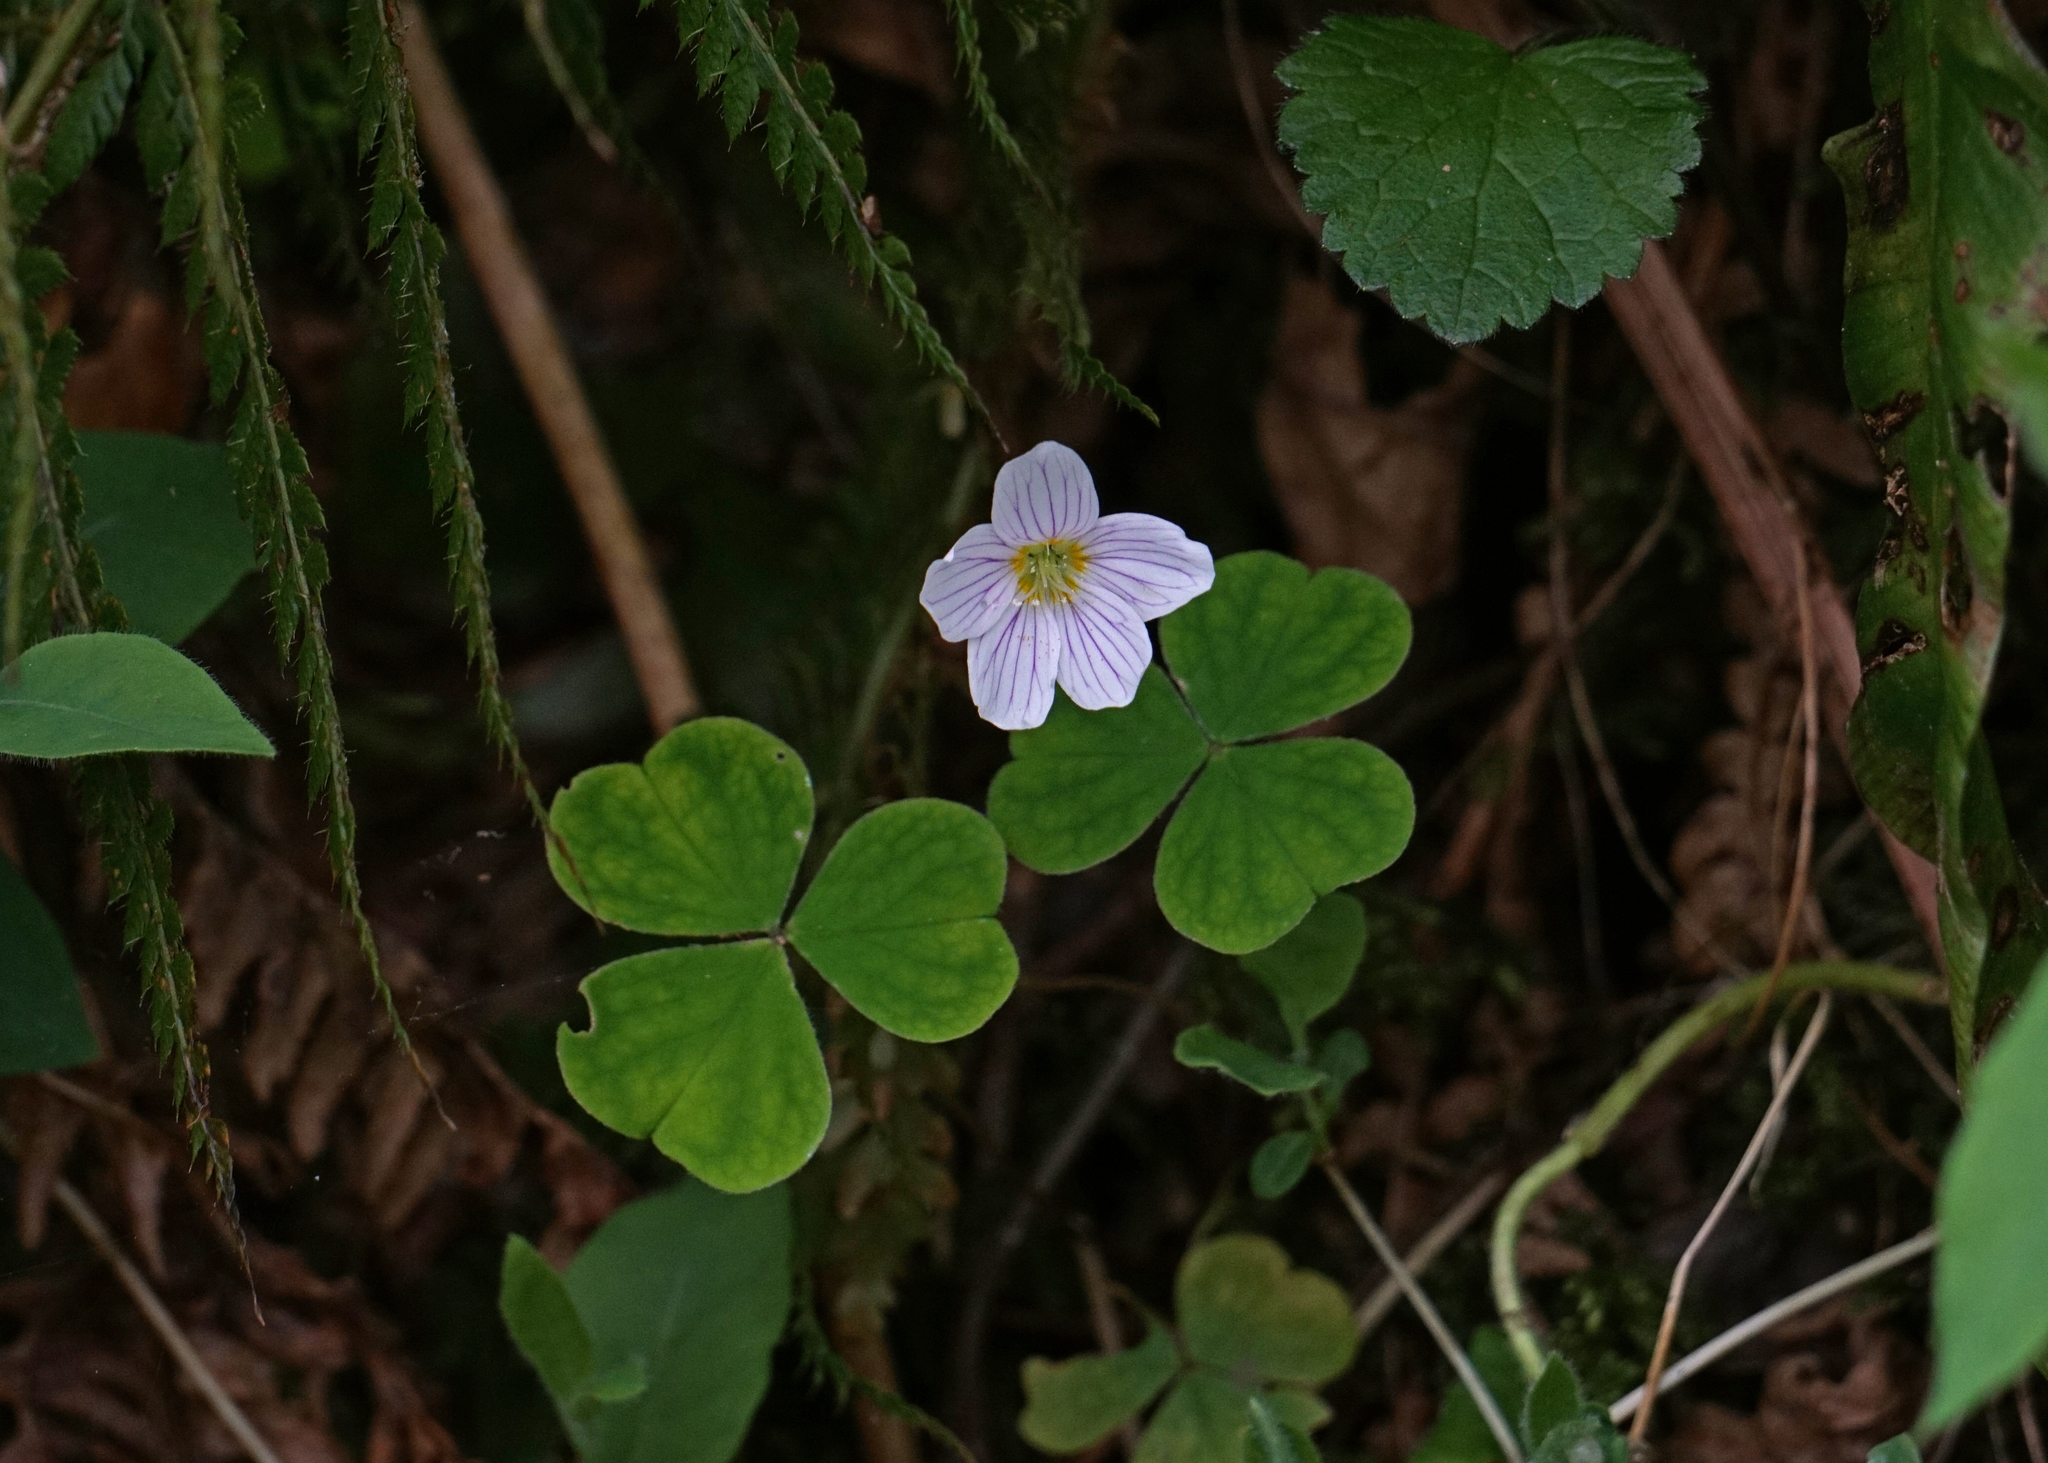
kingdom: Plantae
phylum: Tracheophyta
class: Magnoliopsida
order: Oxalidales
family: Oxalidaceae
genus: Oxalis
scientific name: Oxalis acetosella
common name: Wood-sorrel
